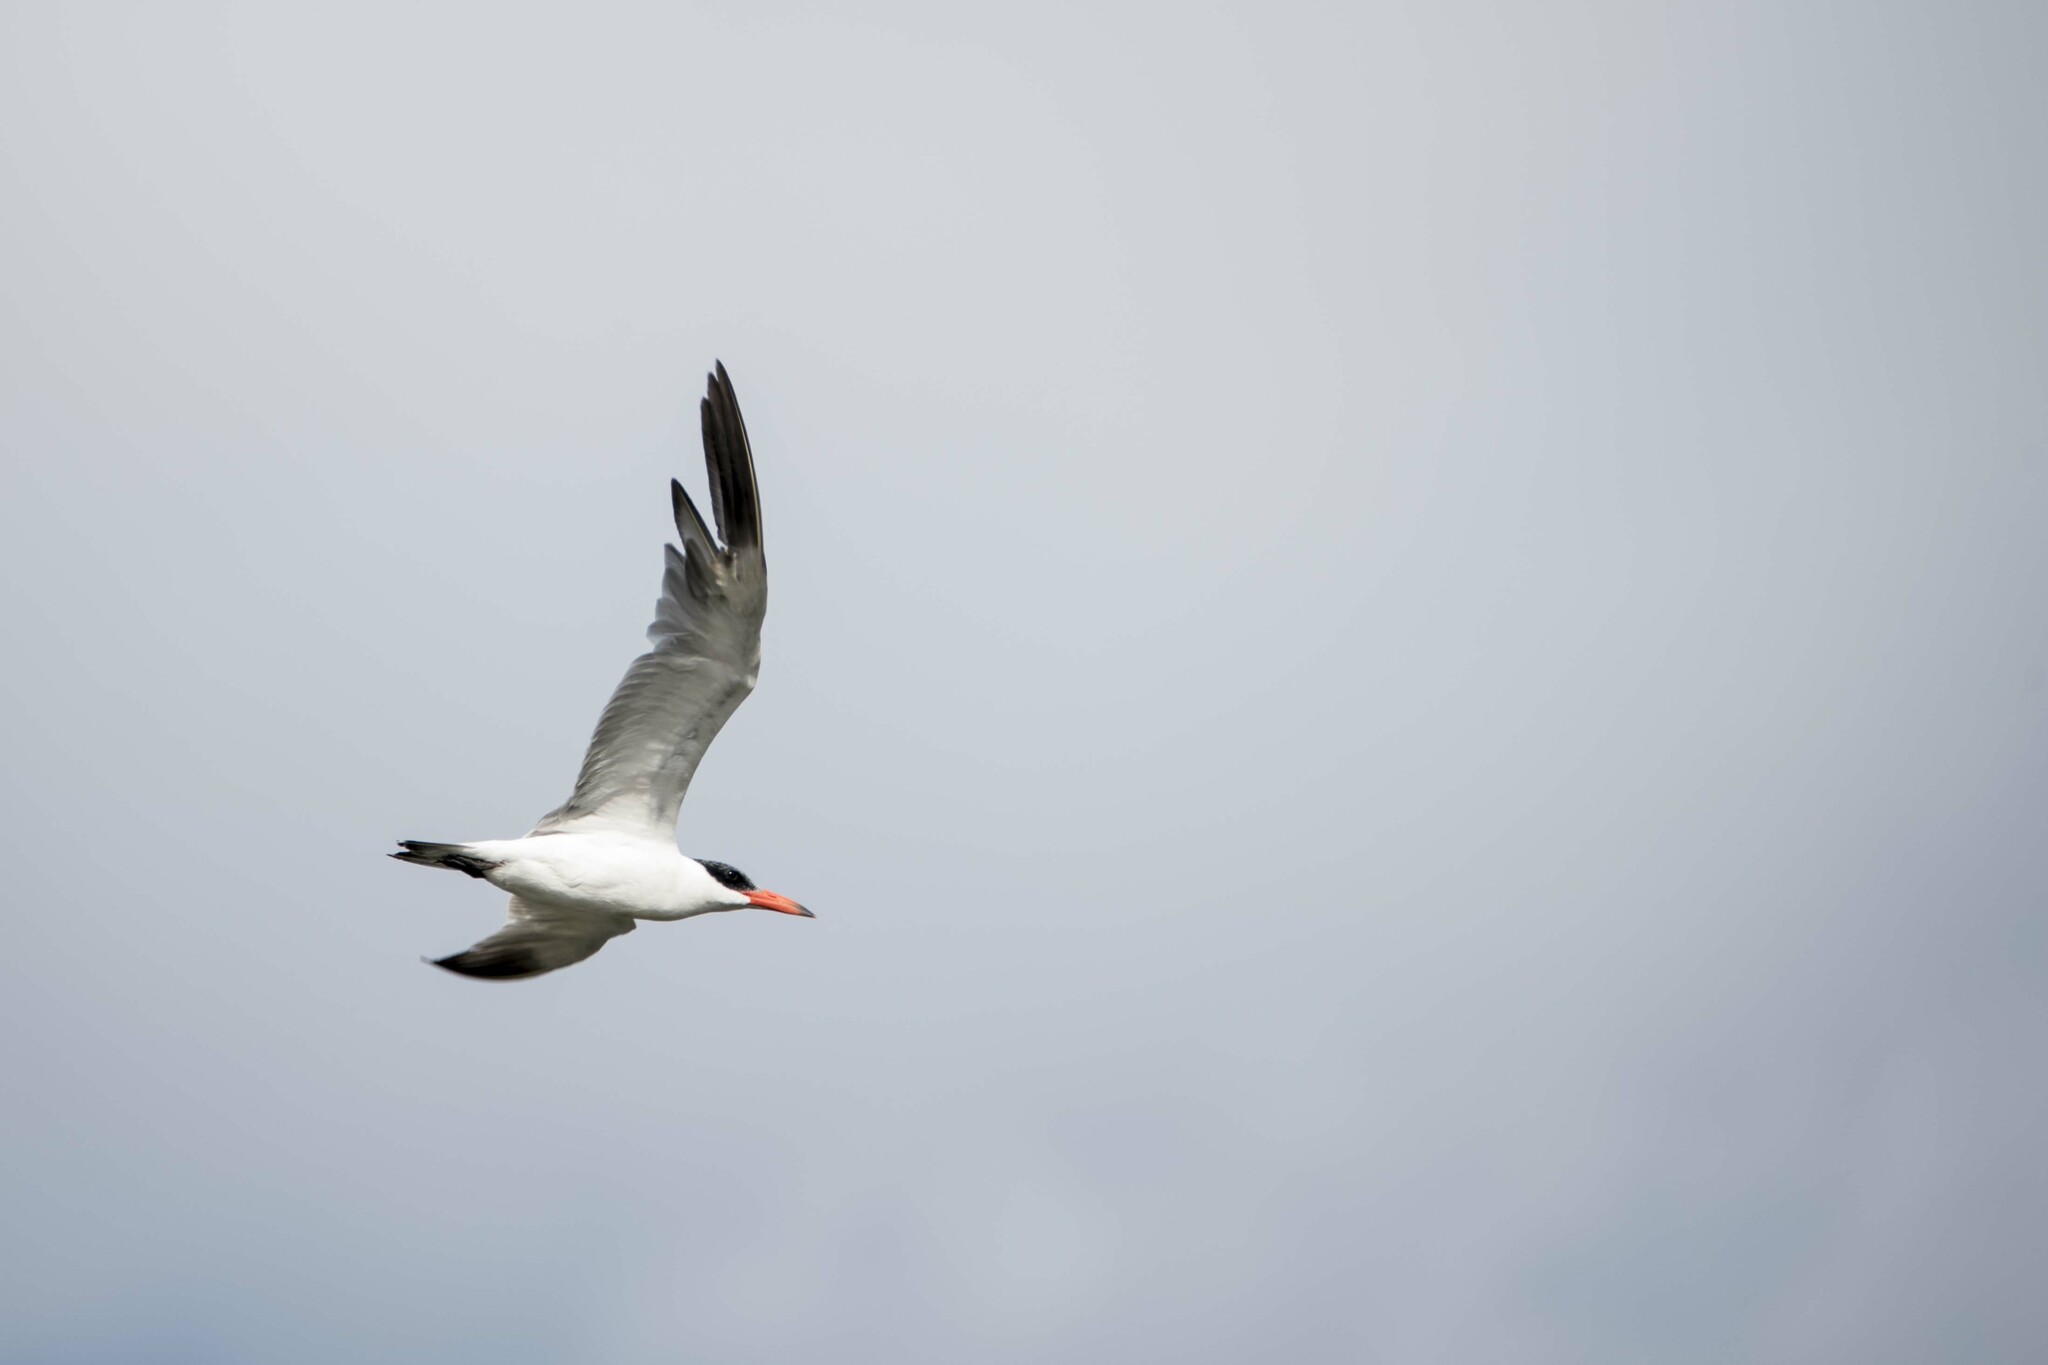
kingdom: Animalia
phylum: Chordata
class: Aves
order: Charadriiformes
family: Laridae
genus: Hydroprogne
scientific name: Hydroprogne caspia
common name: Caspian tern
